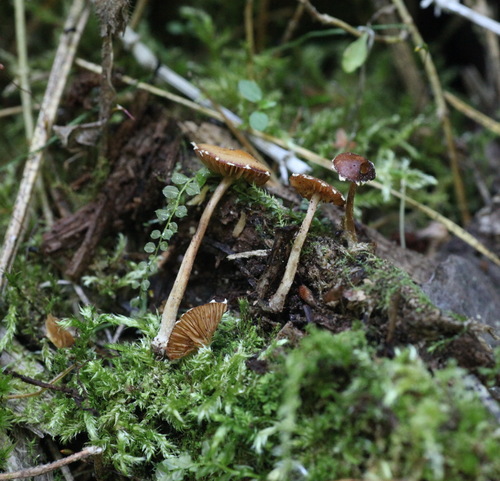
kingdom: Fungi
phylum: Basidiomycota
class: Agaricomycetes
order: Agaricales
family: Bolbitiaceae
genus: Conocybe
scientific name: Conocybe brunnea
